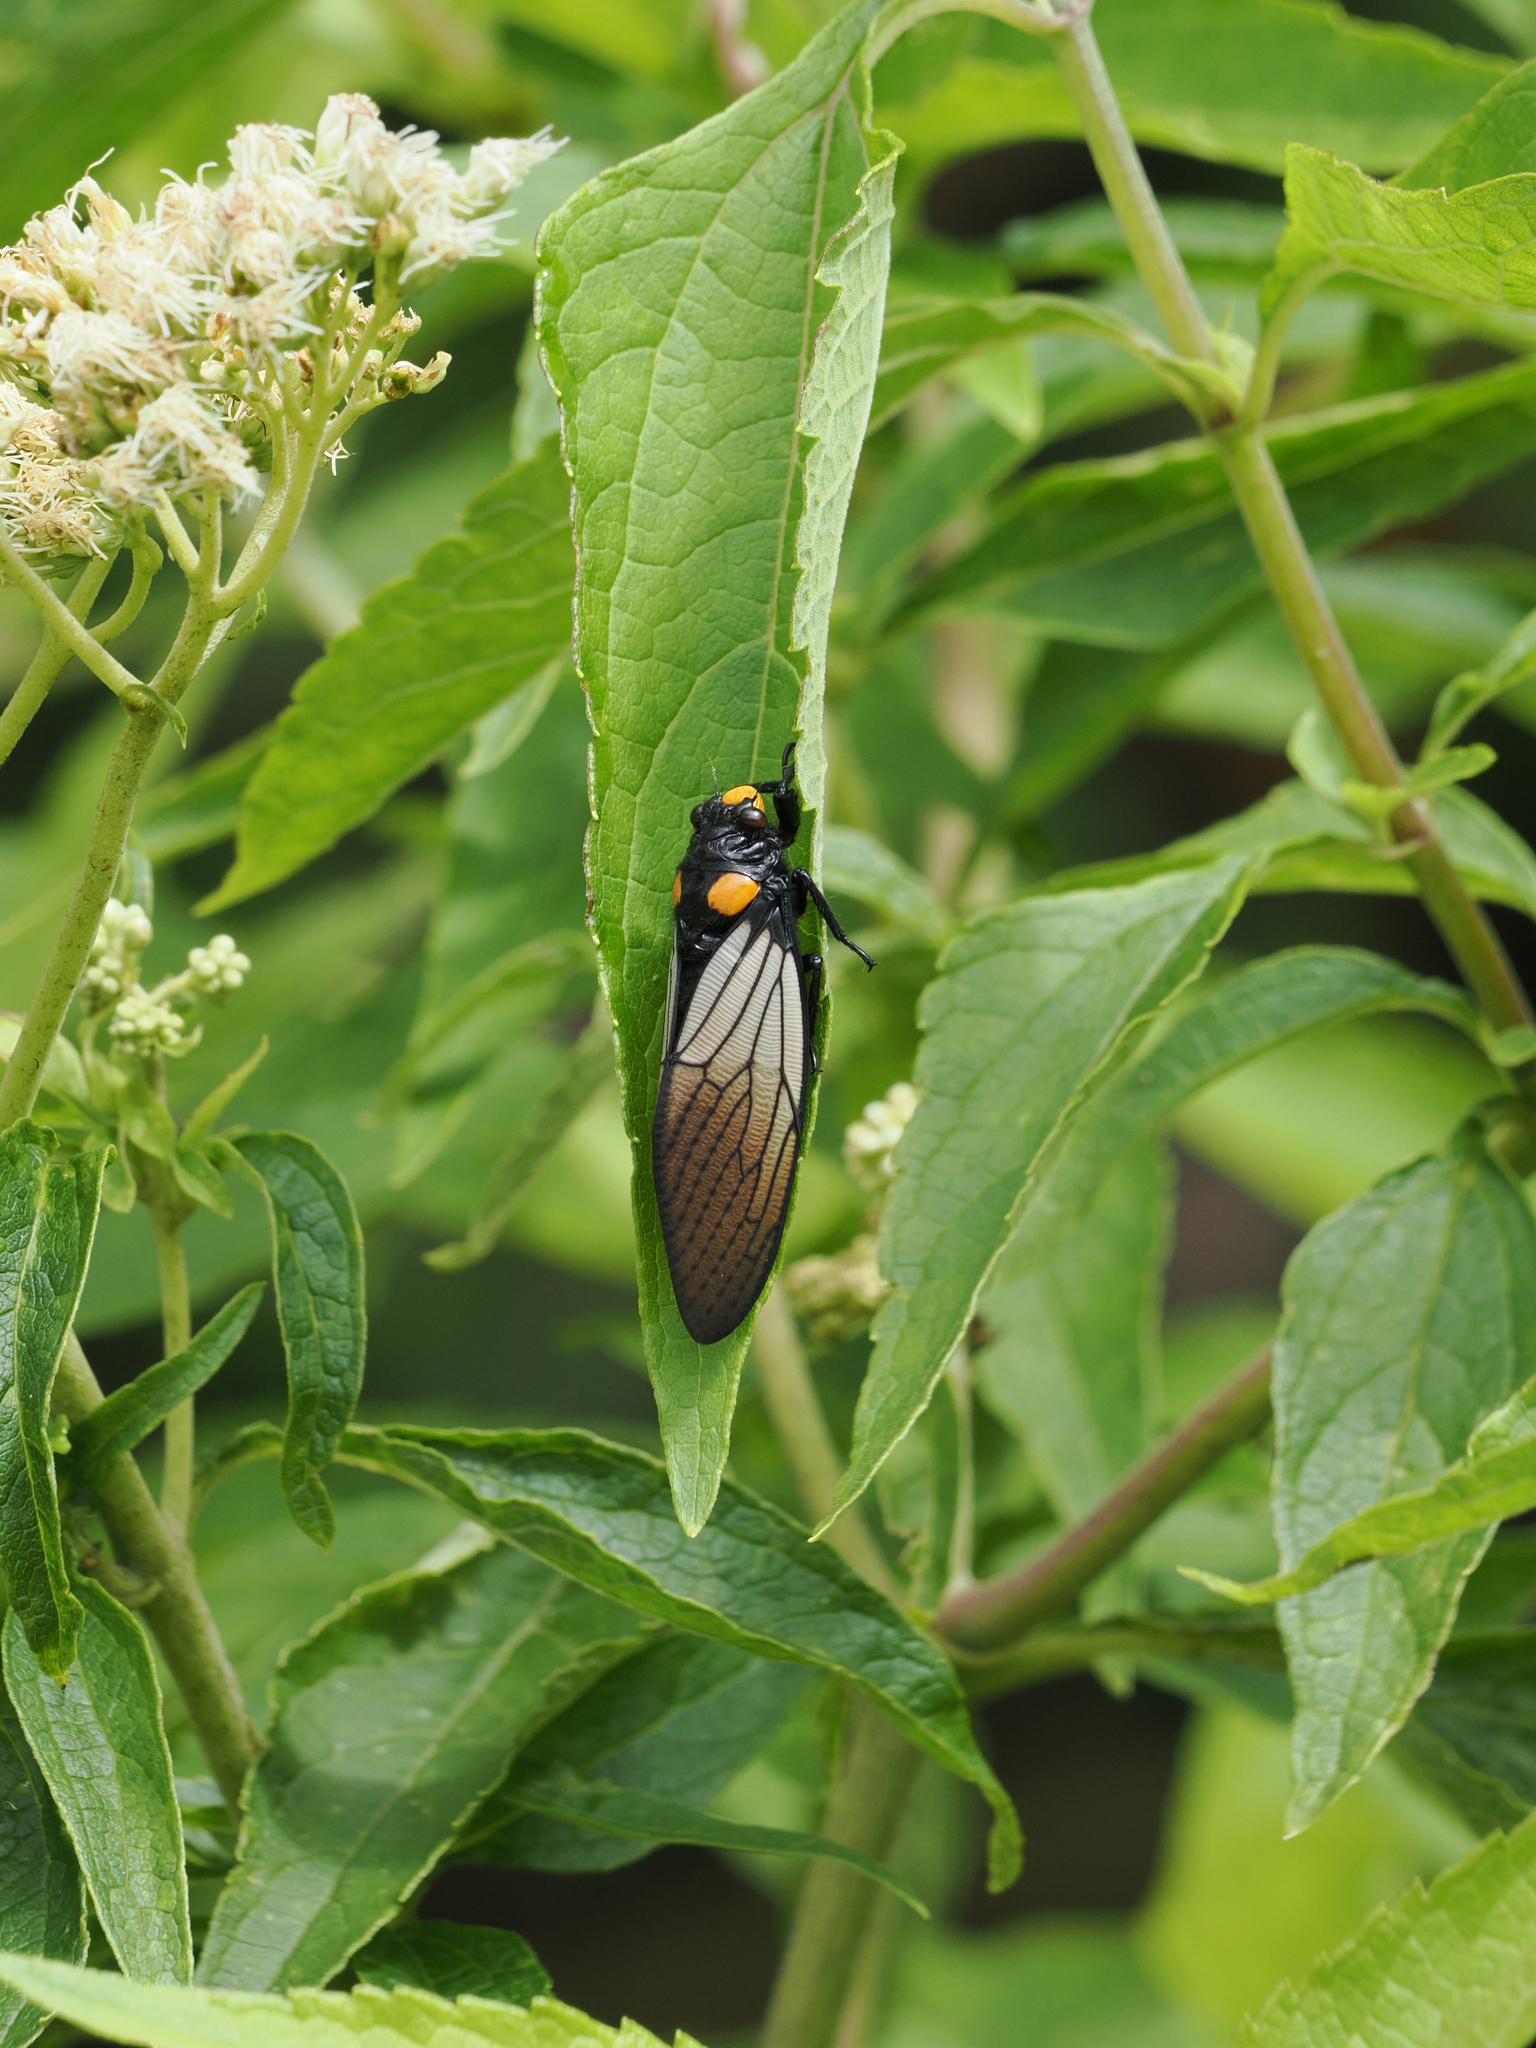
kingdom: Animalia
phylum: Arthropoda
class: Insecta
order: Hemiptera
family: Cicadidae
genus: Huechys
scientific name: Huechys fusca
